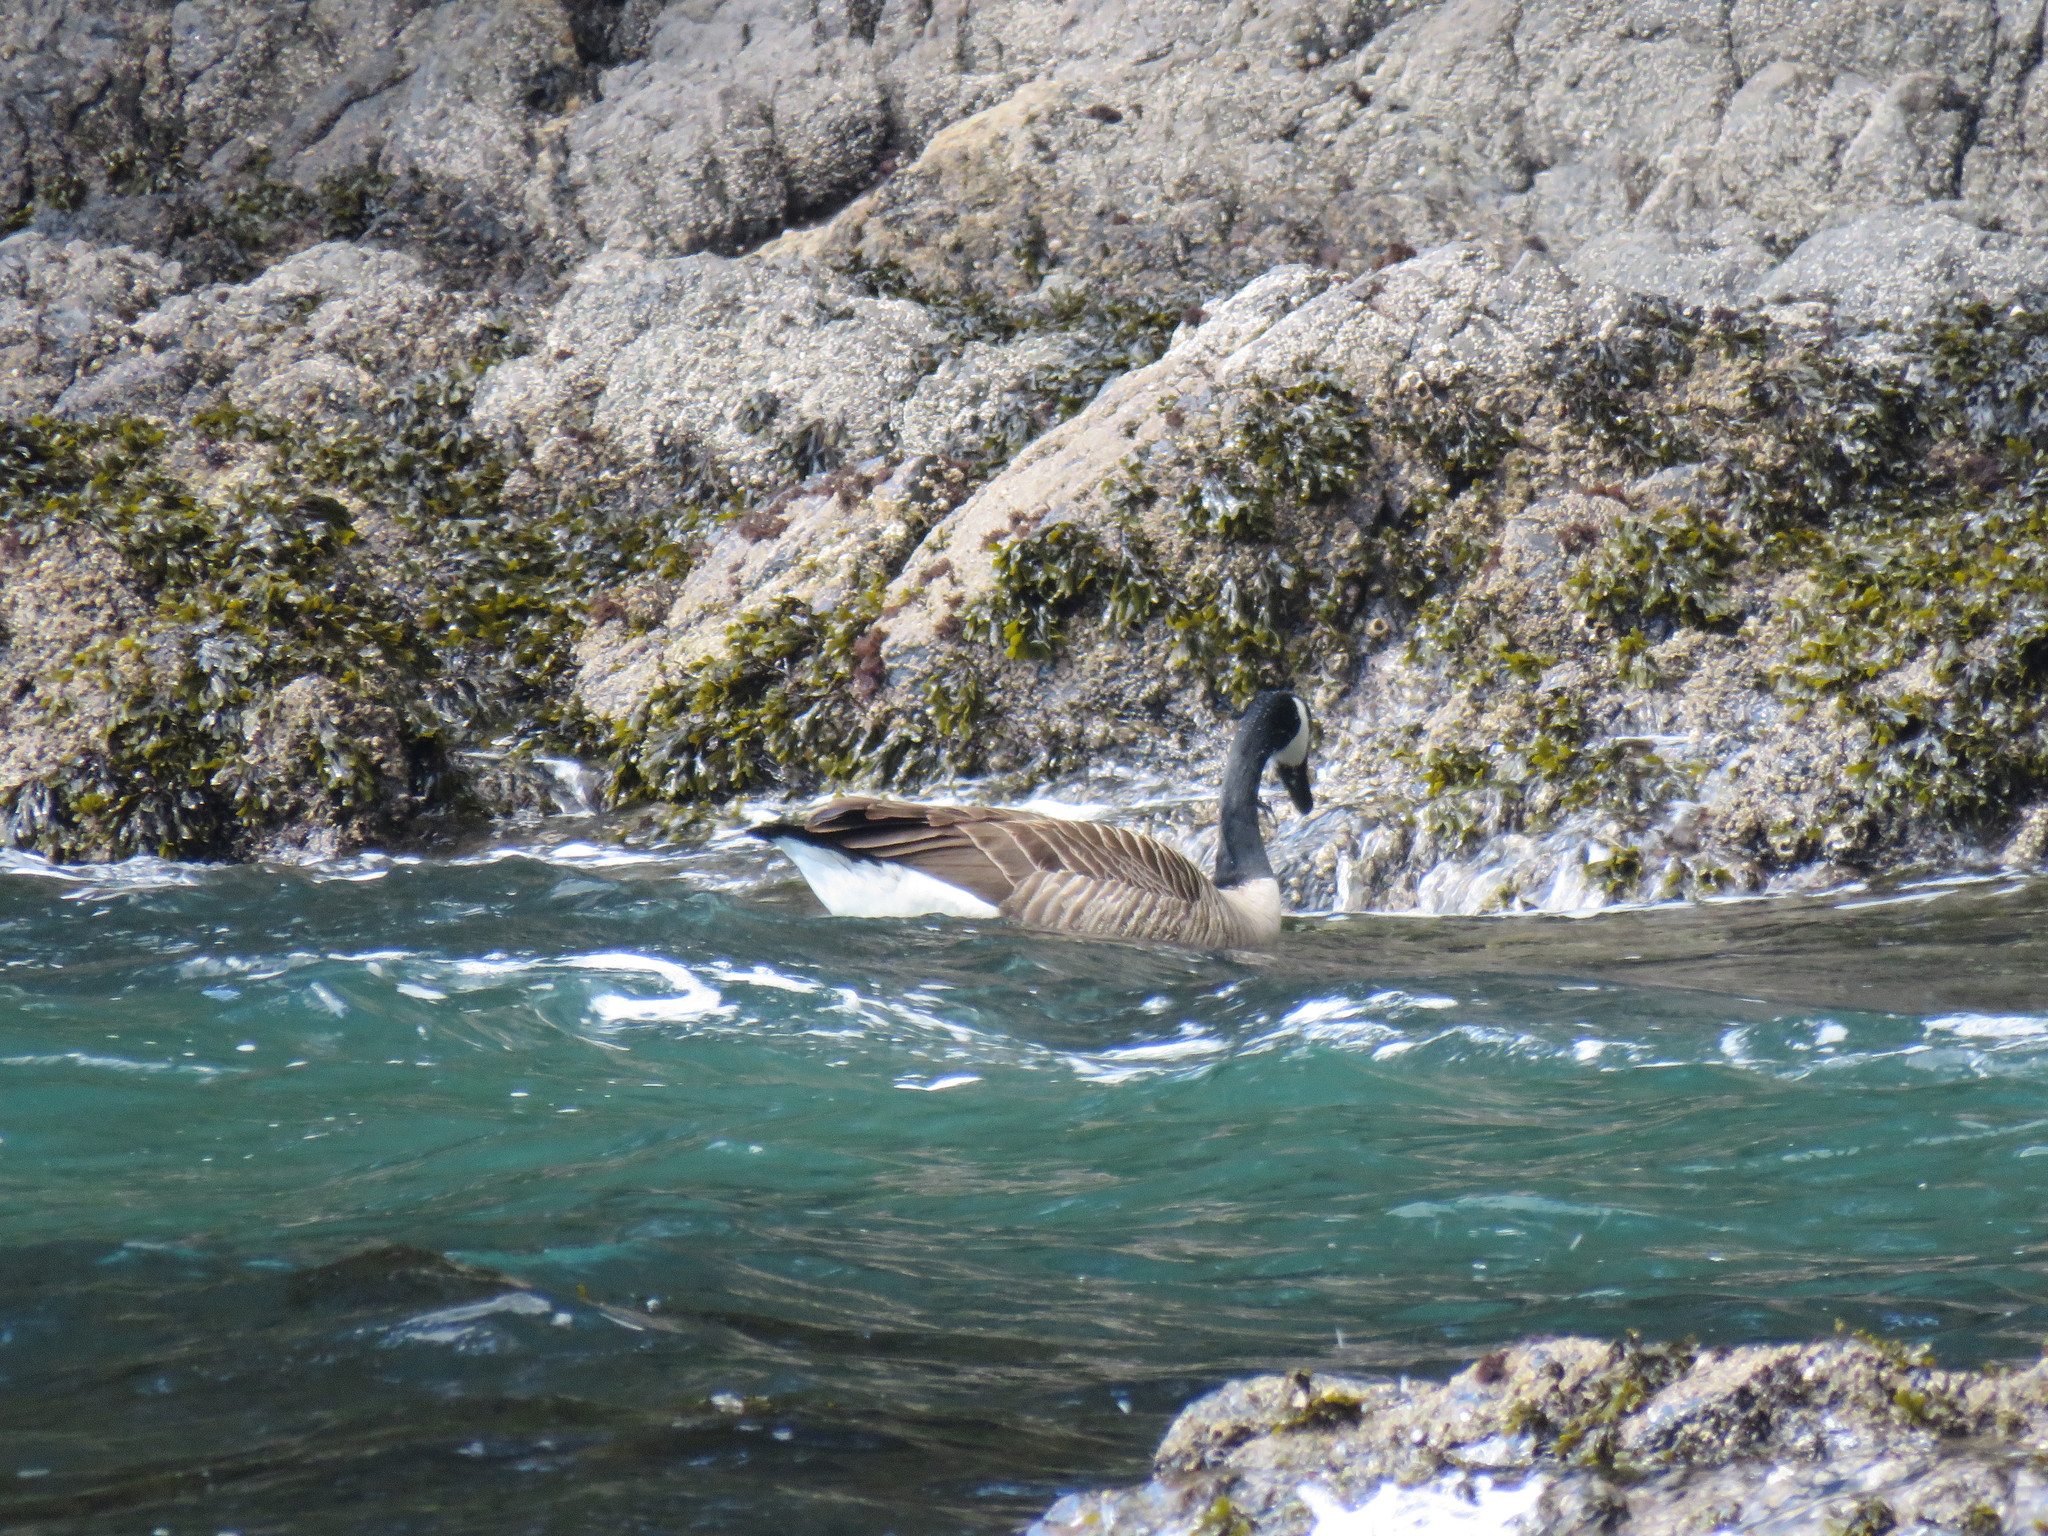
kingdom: Animalia
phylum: Chordata
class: Aves
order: Anseriformes
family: Anatidae
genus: Branta
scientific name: Branta canadensis
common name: Canada goose
